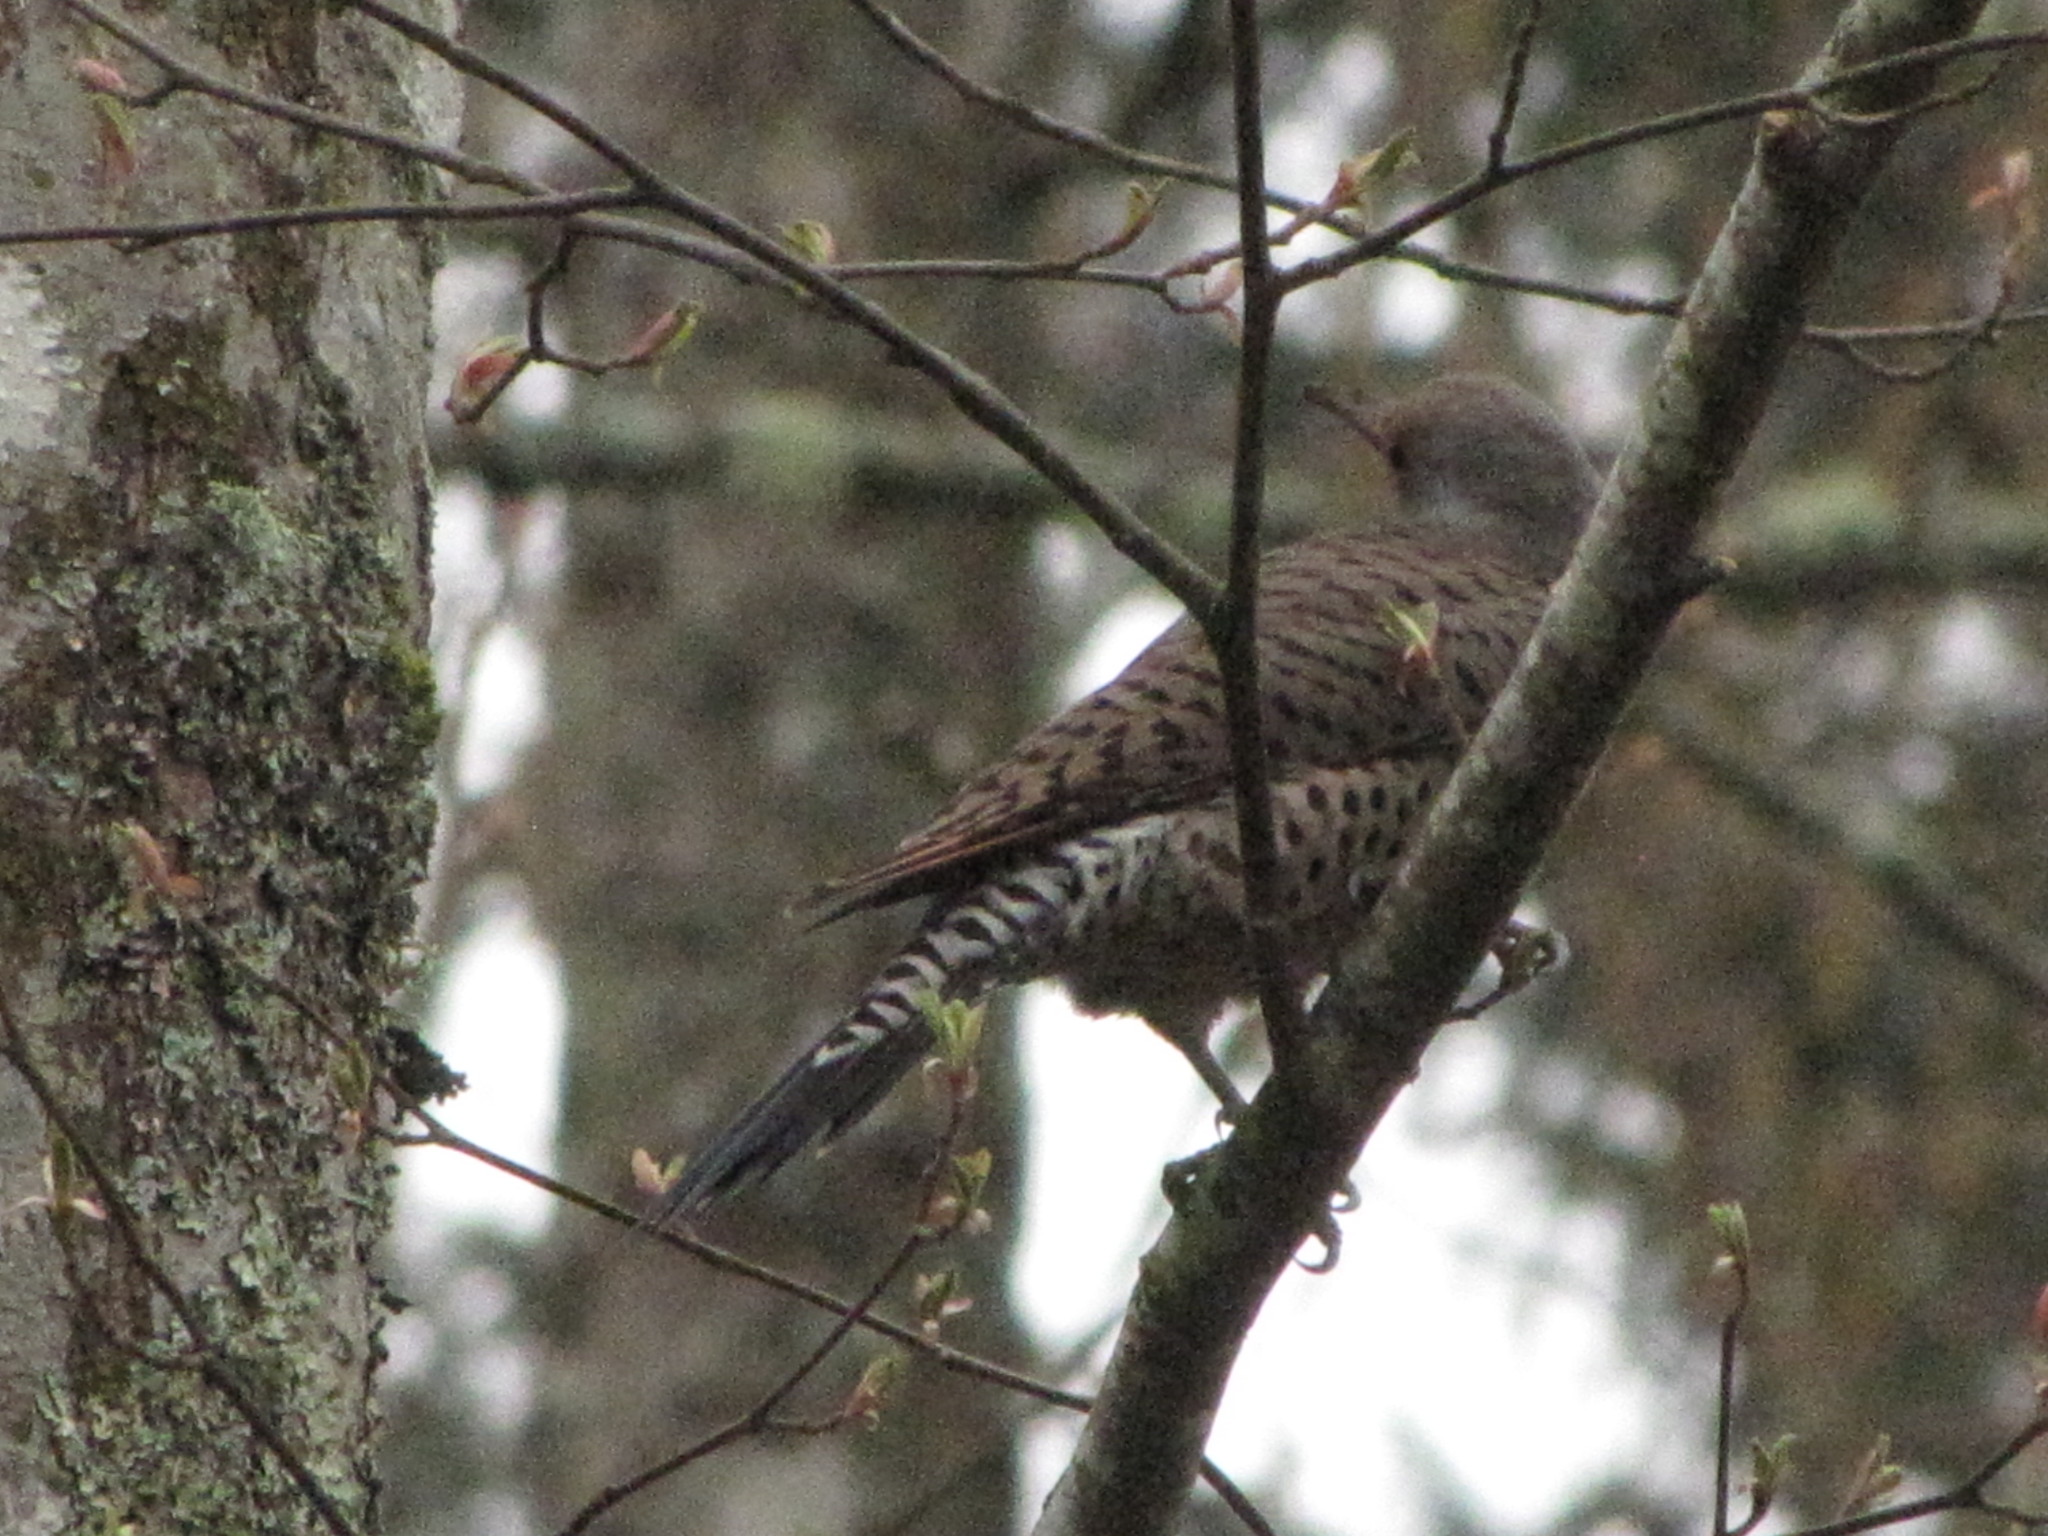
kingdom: Animalia
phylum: Chordata
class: Aves
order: Piciformes
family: Picidae
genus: Colaptes
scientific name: Colaptes auratus
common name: Northern flicker
